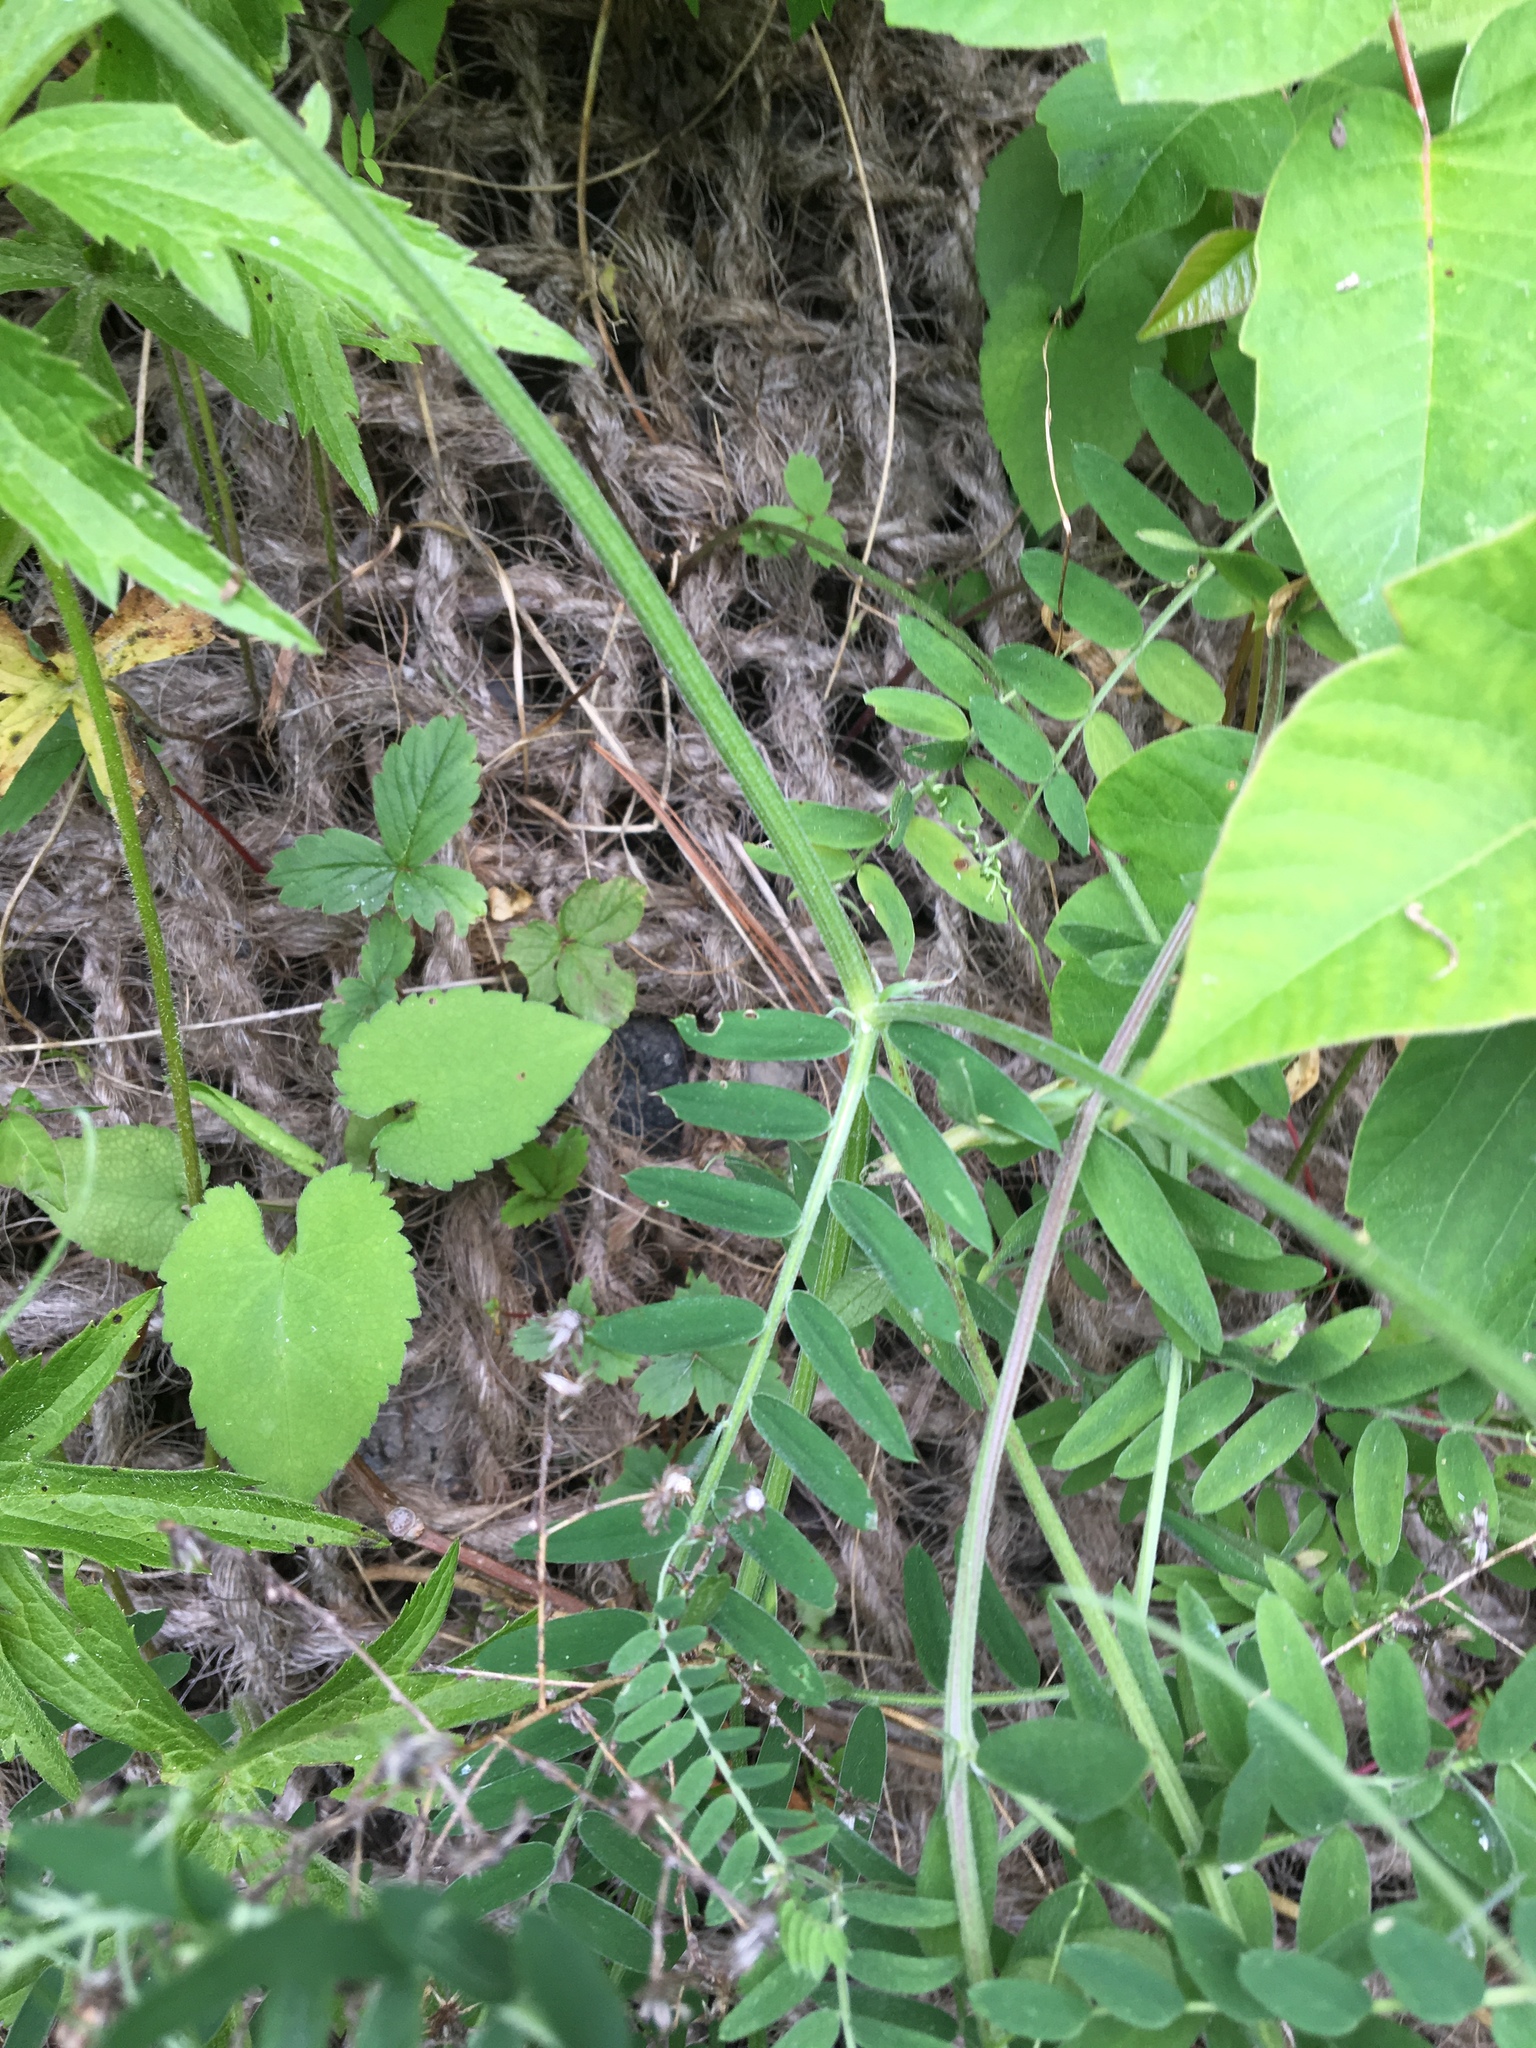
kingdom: Plantae
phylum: Tracheophyta
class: Magnoliopsida
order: Fabales
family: Fabaceae
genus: Vicia
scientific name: Vicia cracca
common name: Bird vetch
